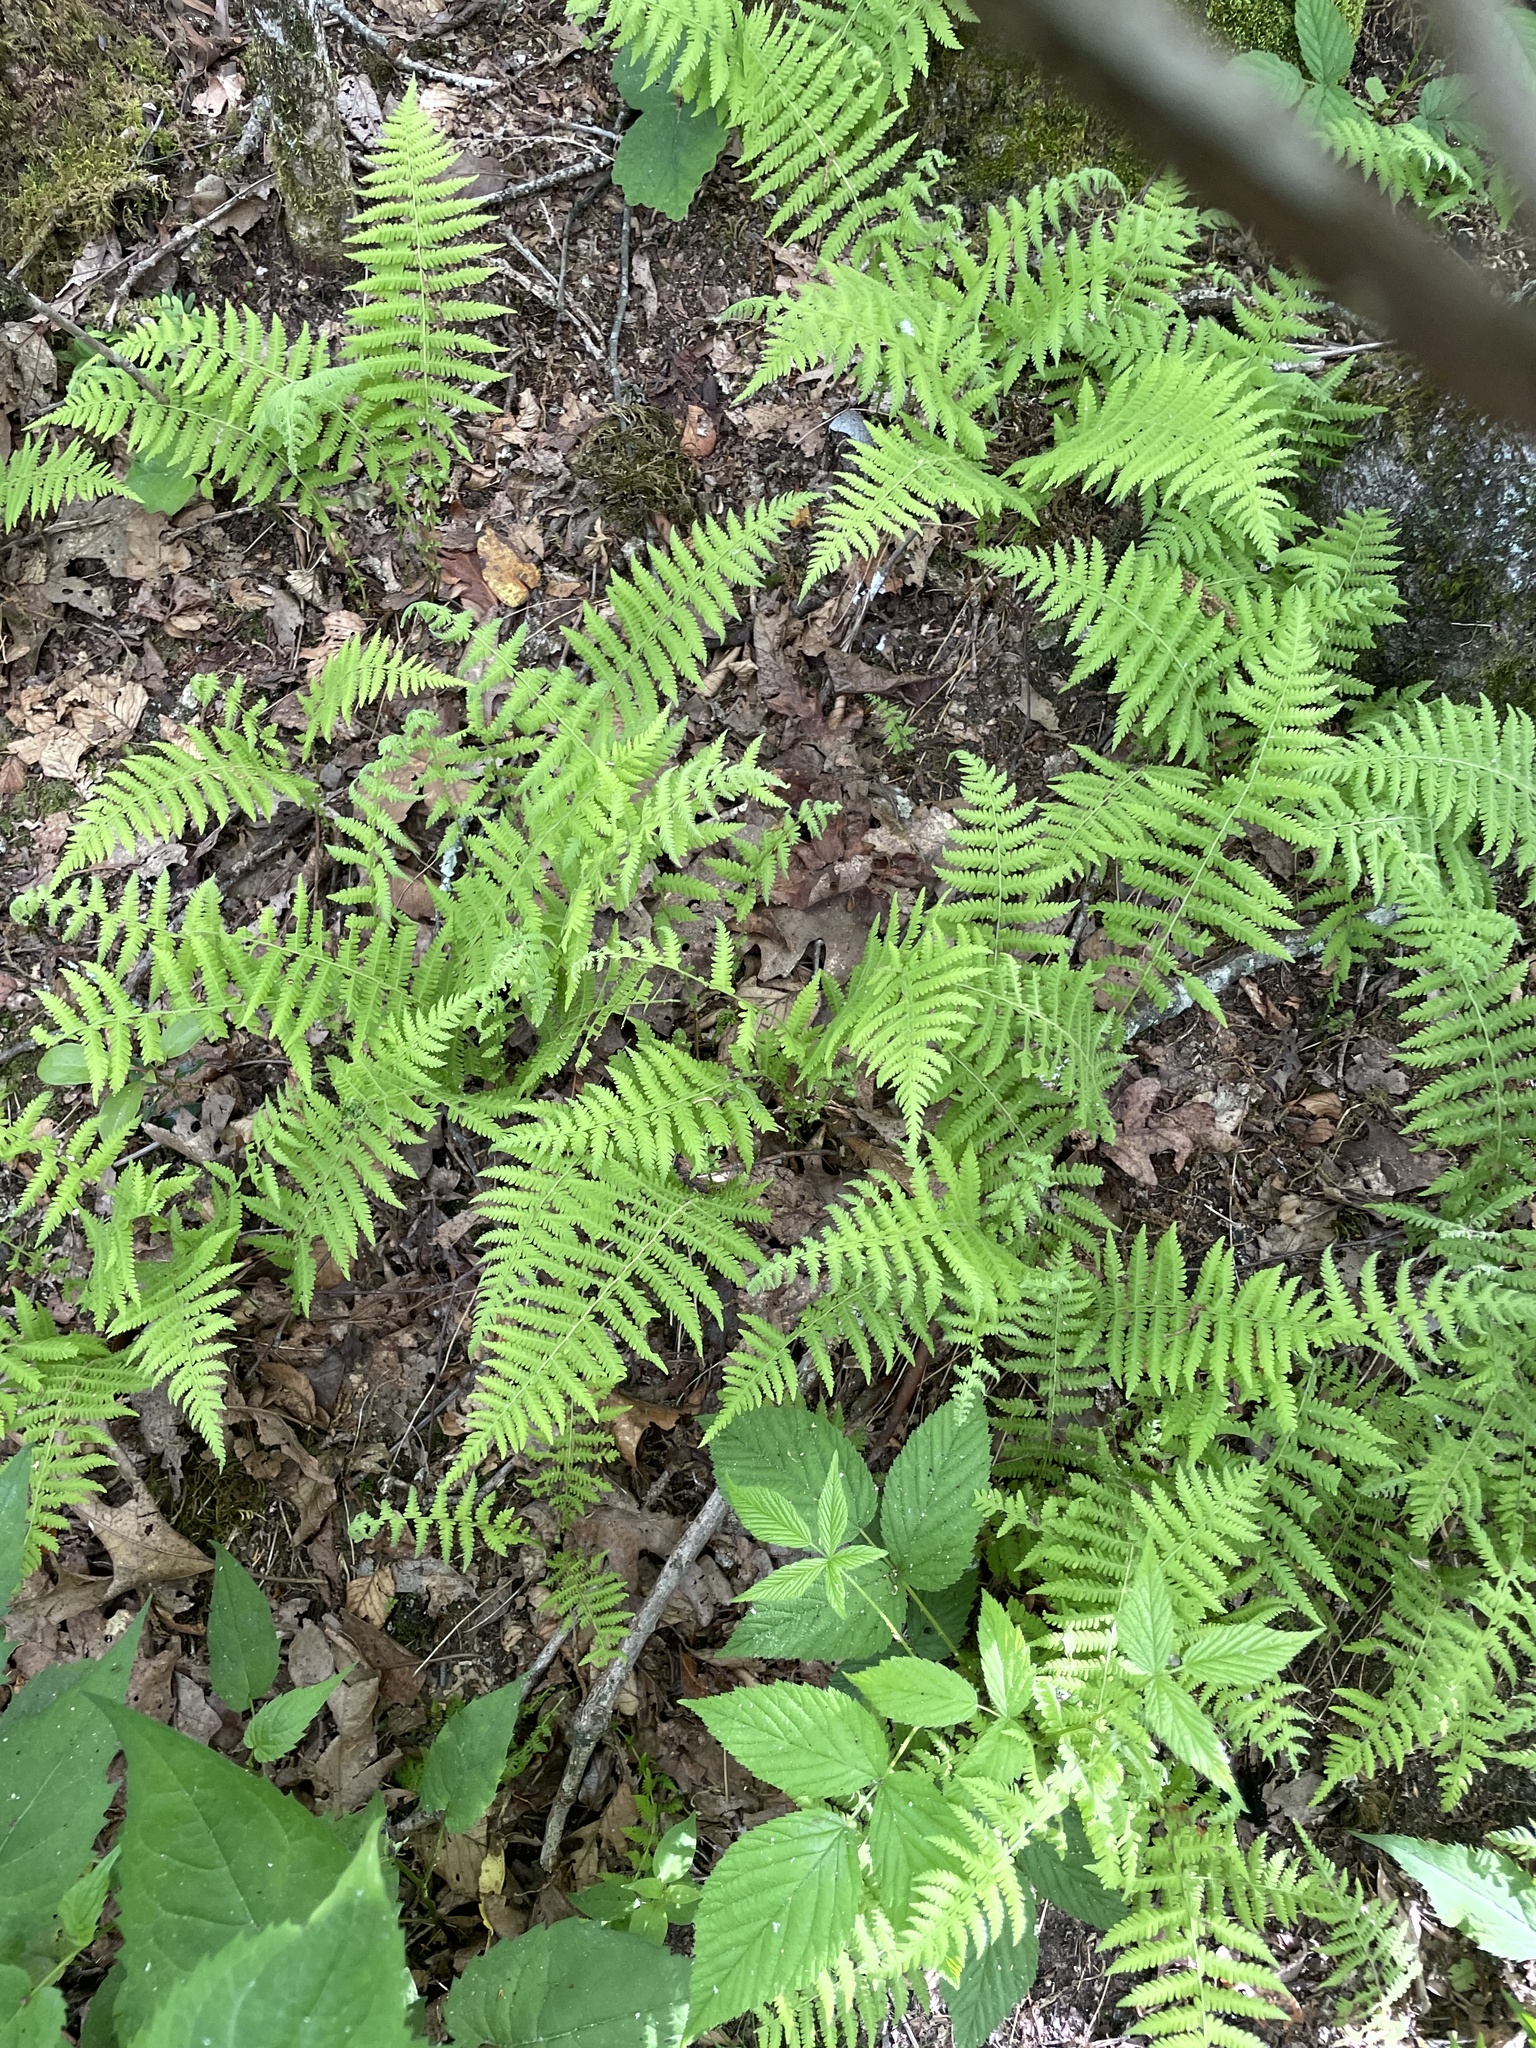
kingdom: Plantae
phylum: Tracheophyta
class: Polypodiopsida
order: Polypodiales
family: Thelypteridaceae
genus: Amauropelta
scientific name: Amauropelta noveboracensis
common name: New york fern
